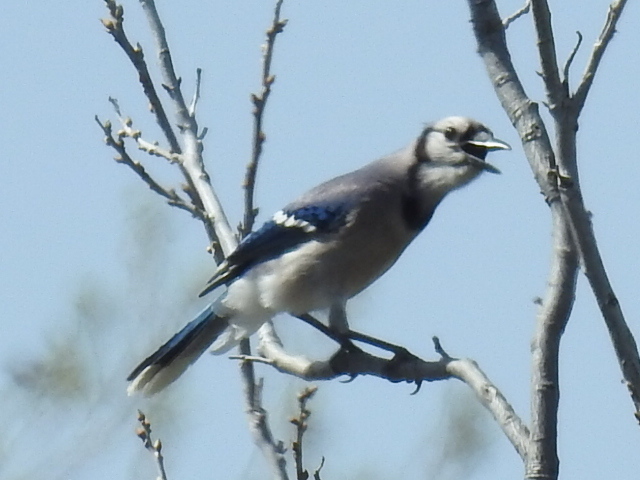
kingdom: Animalia
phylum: Chordata
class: Aves
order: Passeriformes
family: Corvidae
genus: Cyanocitta
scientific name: Cyanocitta cristata
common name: Blue jay
